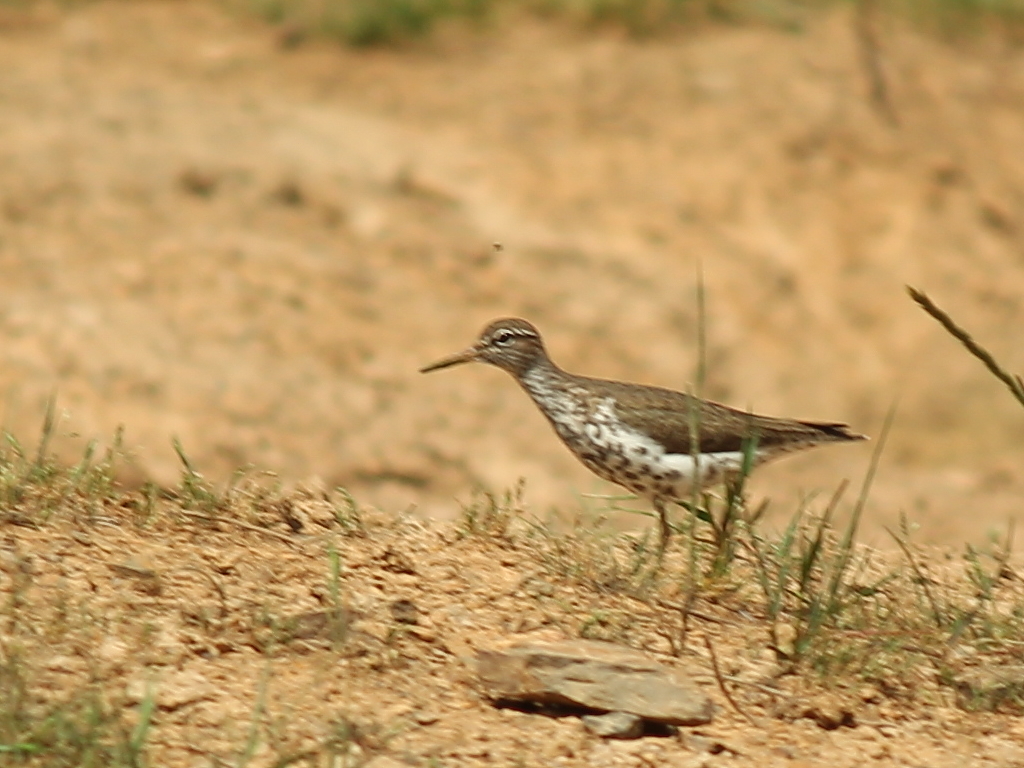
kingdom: Animalia
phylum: Chordata
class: Aves
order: Charadriiformes
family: Scolopacidae
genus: Actitis
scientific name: Actitis macularius
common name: Spotted sandpiper
